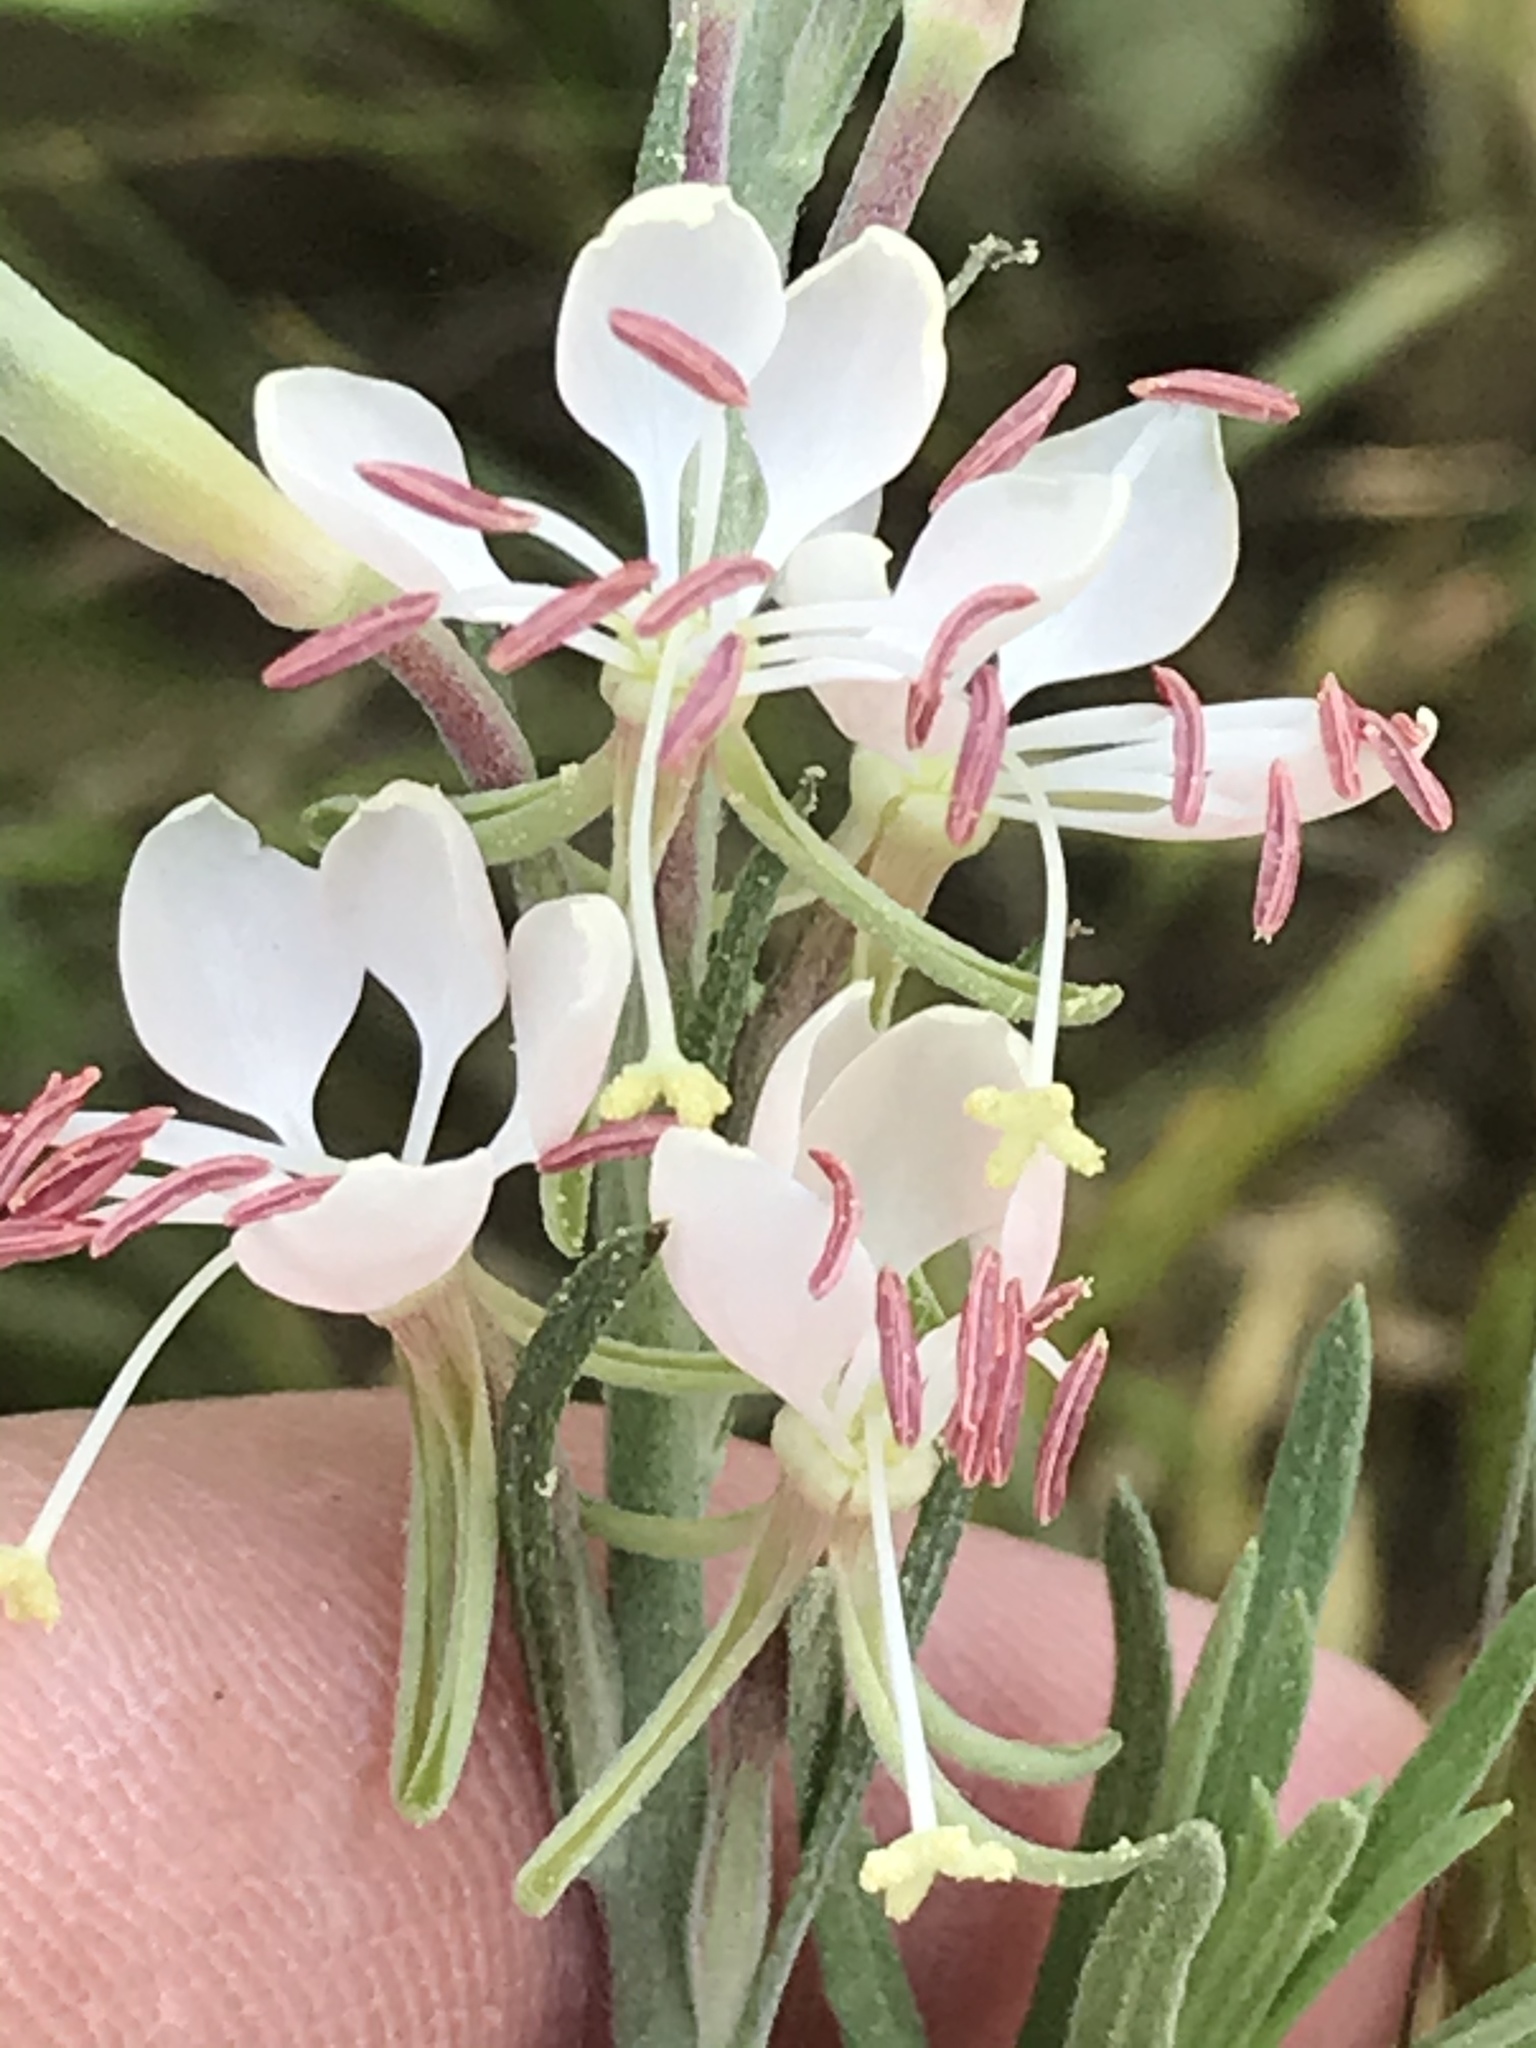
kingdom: Plantae
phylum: Tracheophyta
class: Magnoliopsida
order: Myrtales
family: Onagraceae
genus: Oenothera
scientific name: Oenothera suffulta
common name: Kisses
